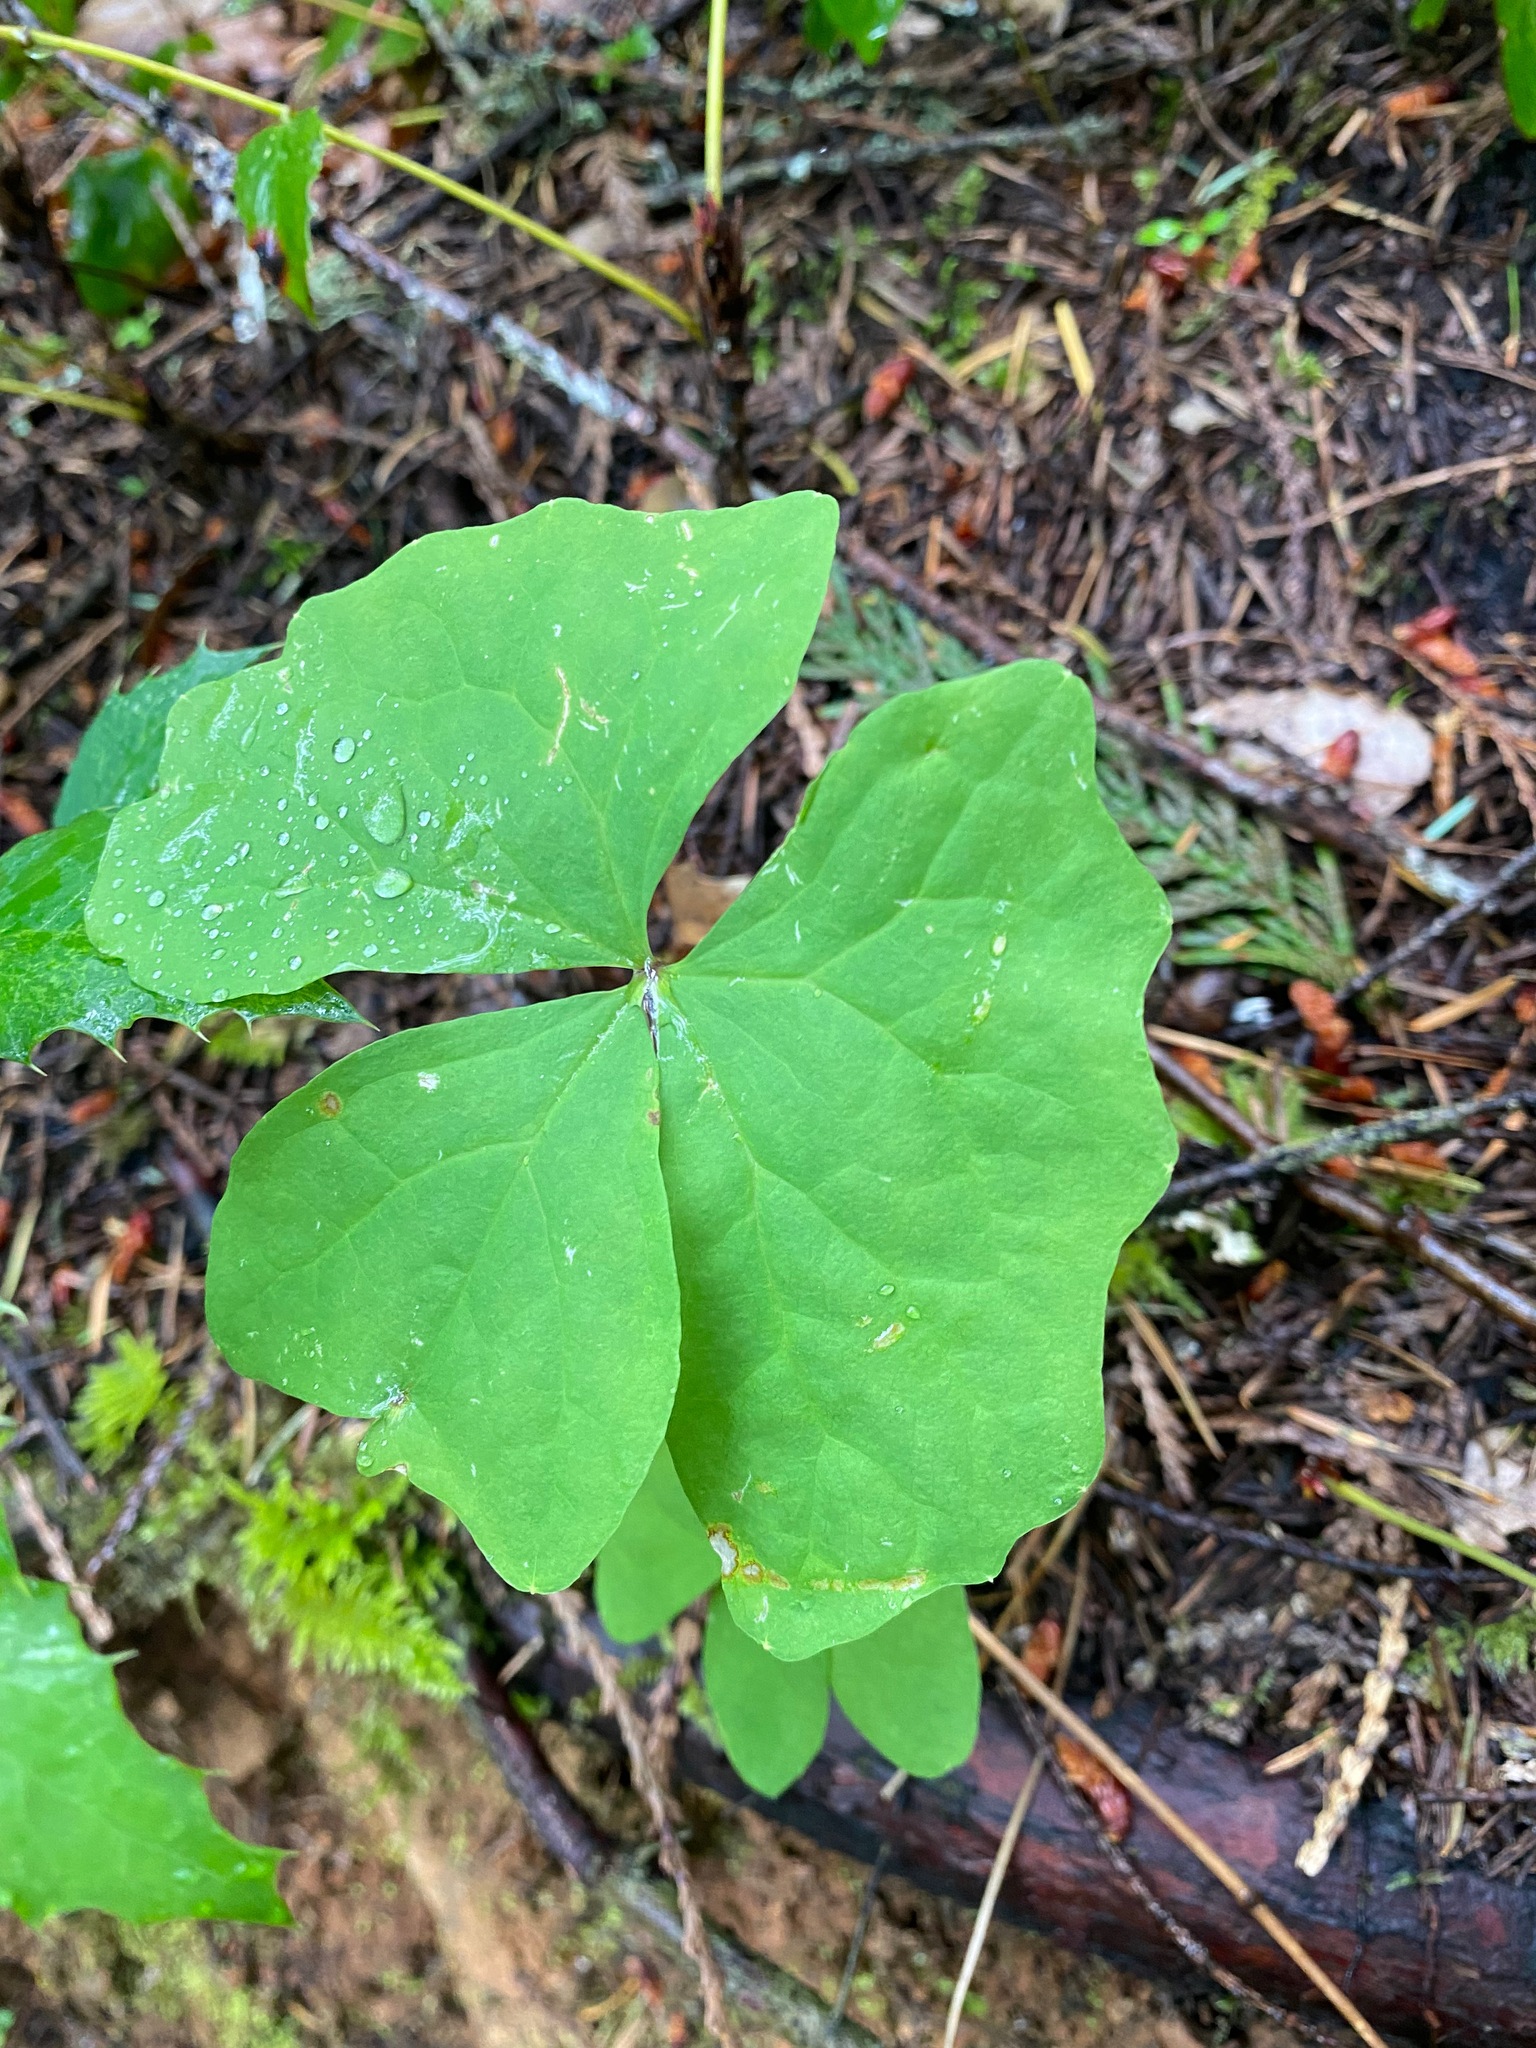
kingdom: Plantae
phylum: Tracheophyta
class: Magnoliopsida
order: Ranunculales
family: Berberidaceae
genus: Achlys
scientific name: Achlys triphylla
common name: Vanilla-leaf
